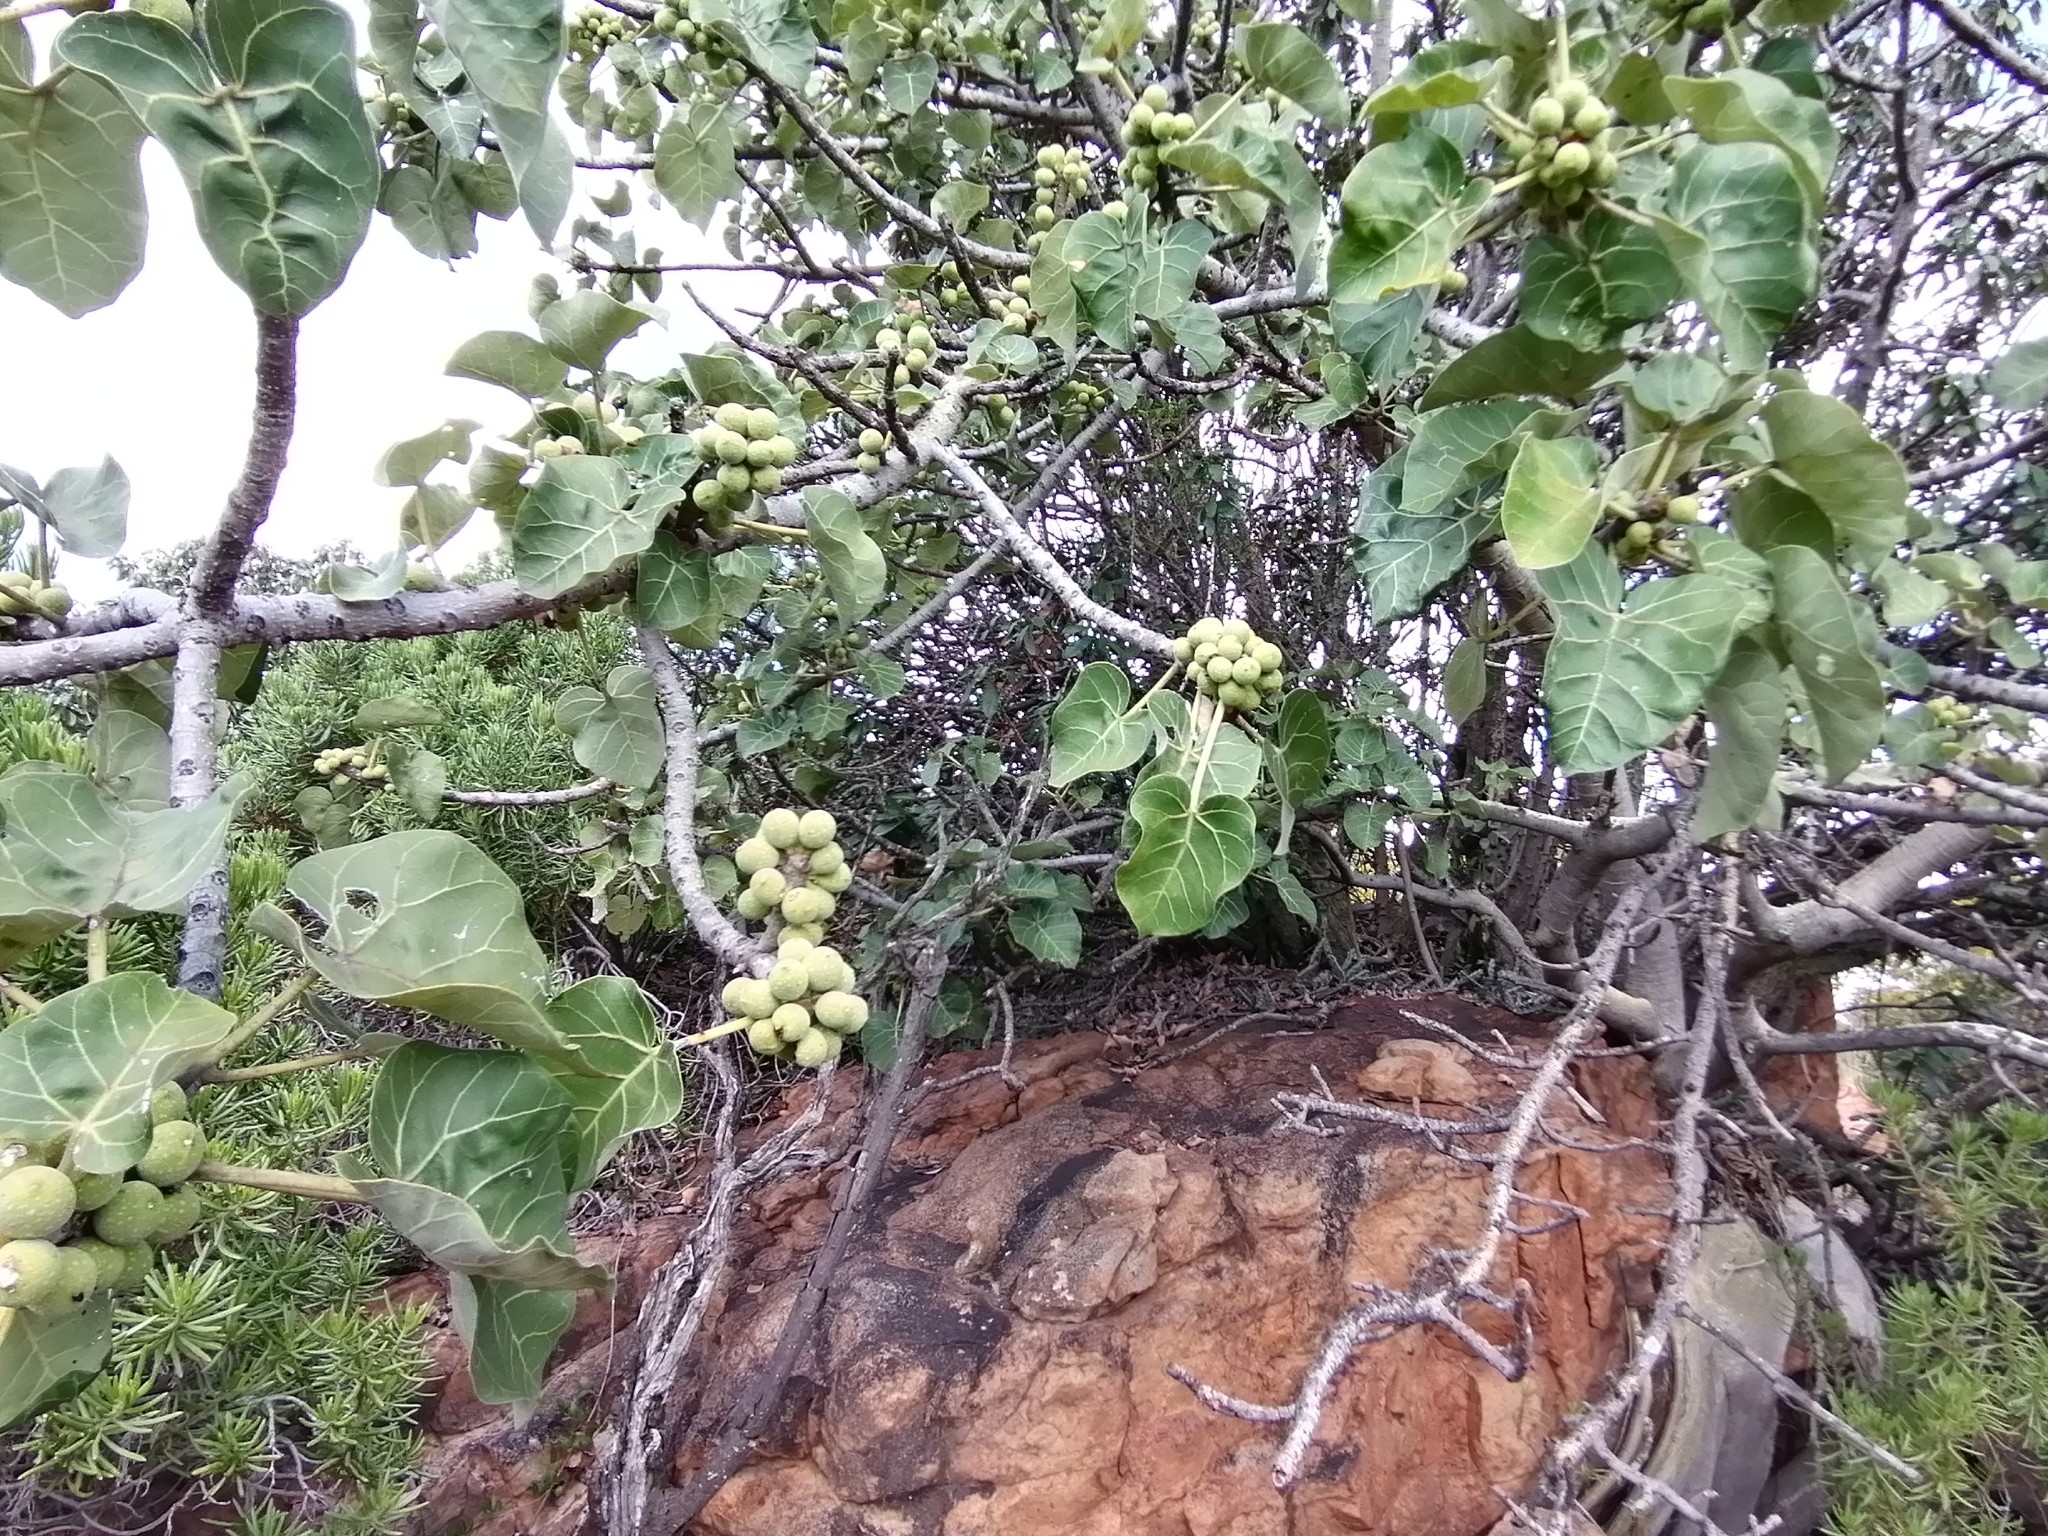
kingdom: Plantae
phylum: Tracheophyta
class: Magnoliopsida
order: Rosales
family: Moraceae
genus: Ficus
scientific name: Ficus abutilifolia
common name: Large-leaved rock fig
